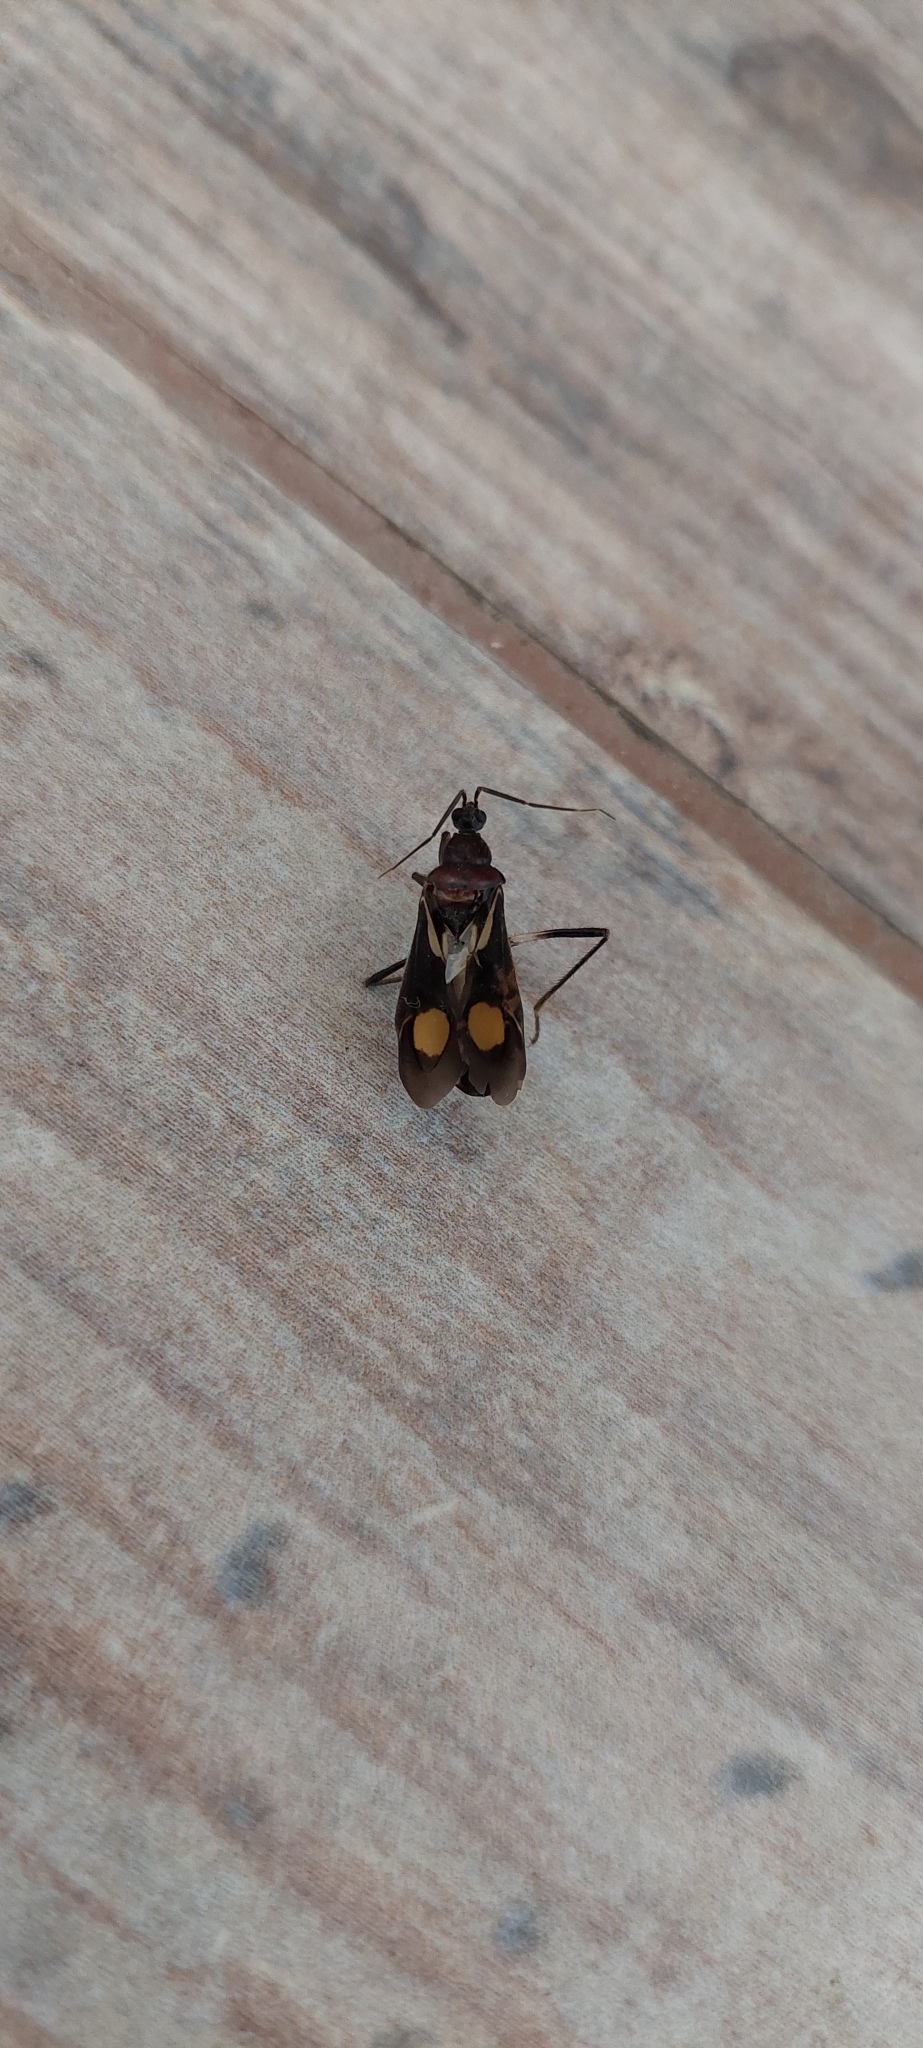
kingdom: Animalia
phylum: Arthropoda
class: Insecta
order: Hemiptera
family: Reduviidae
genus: Rasahus
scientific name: Rasahus hamatus
